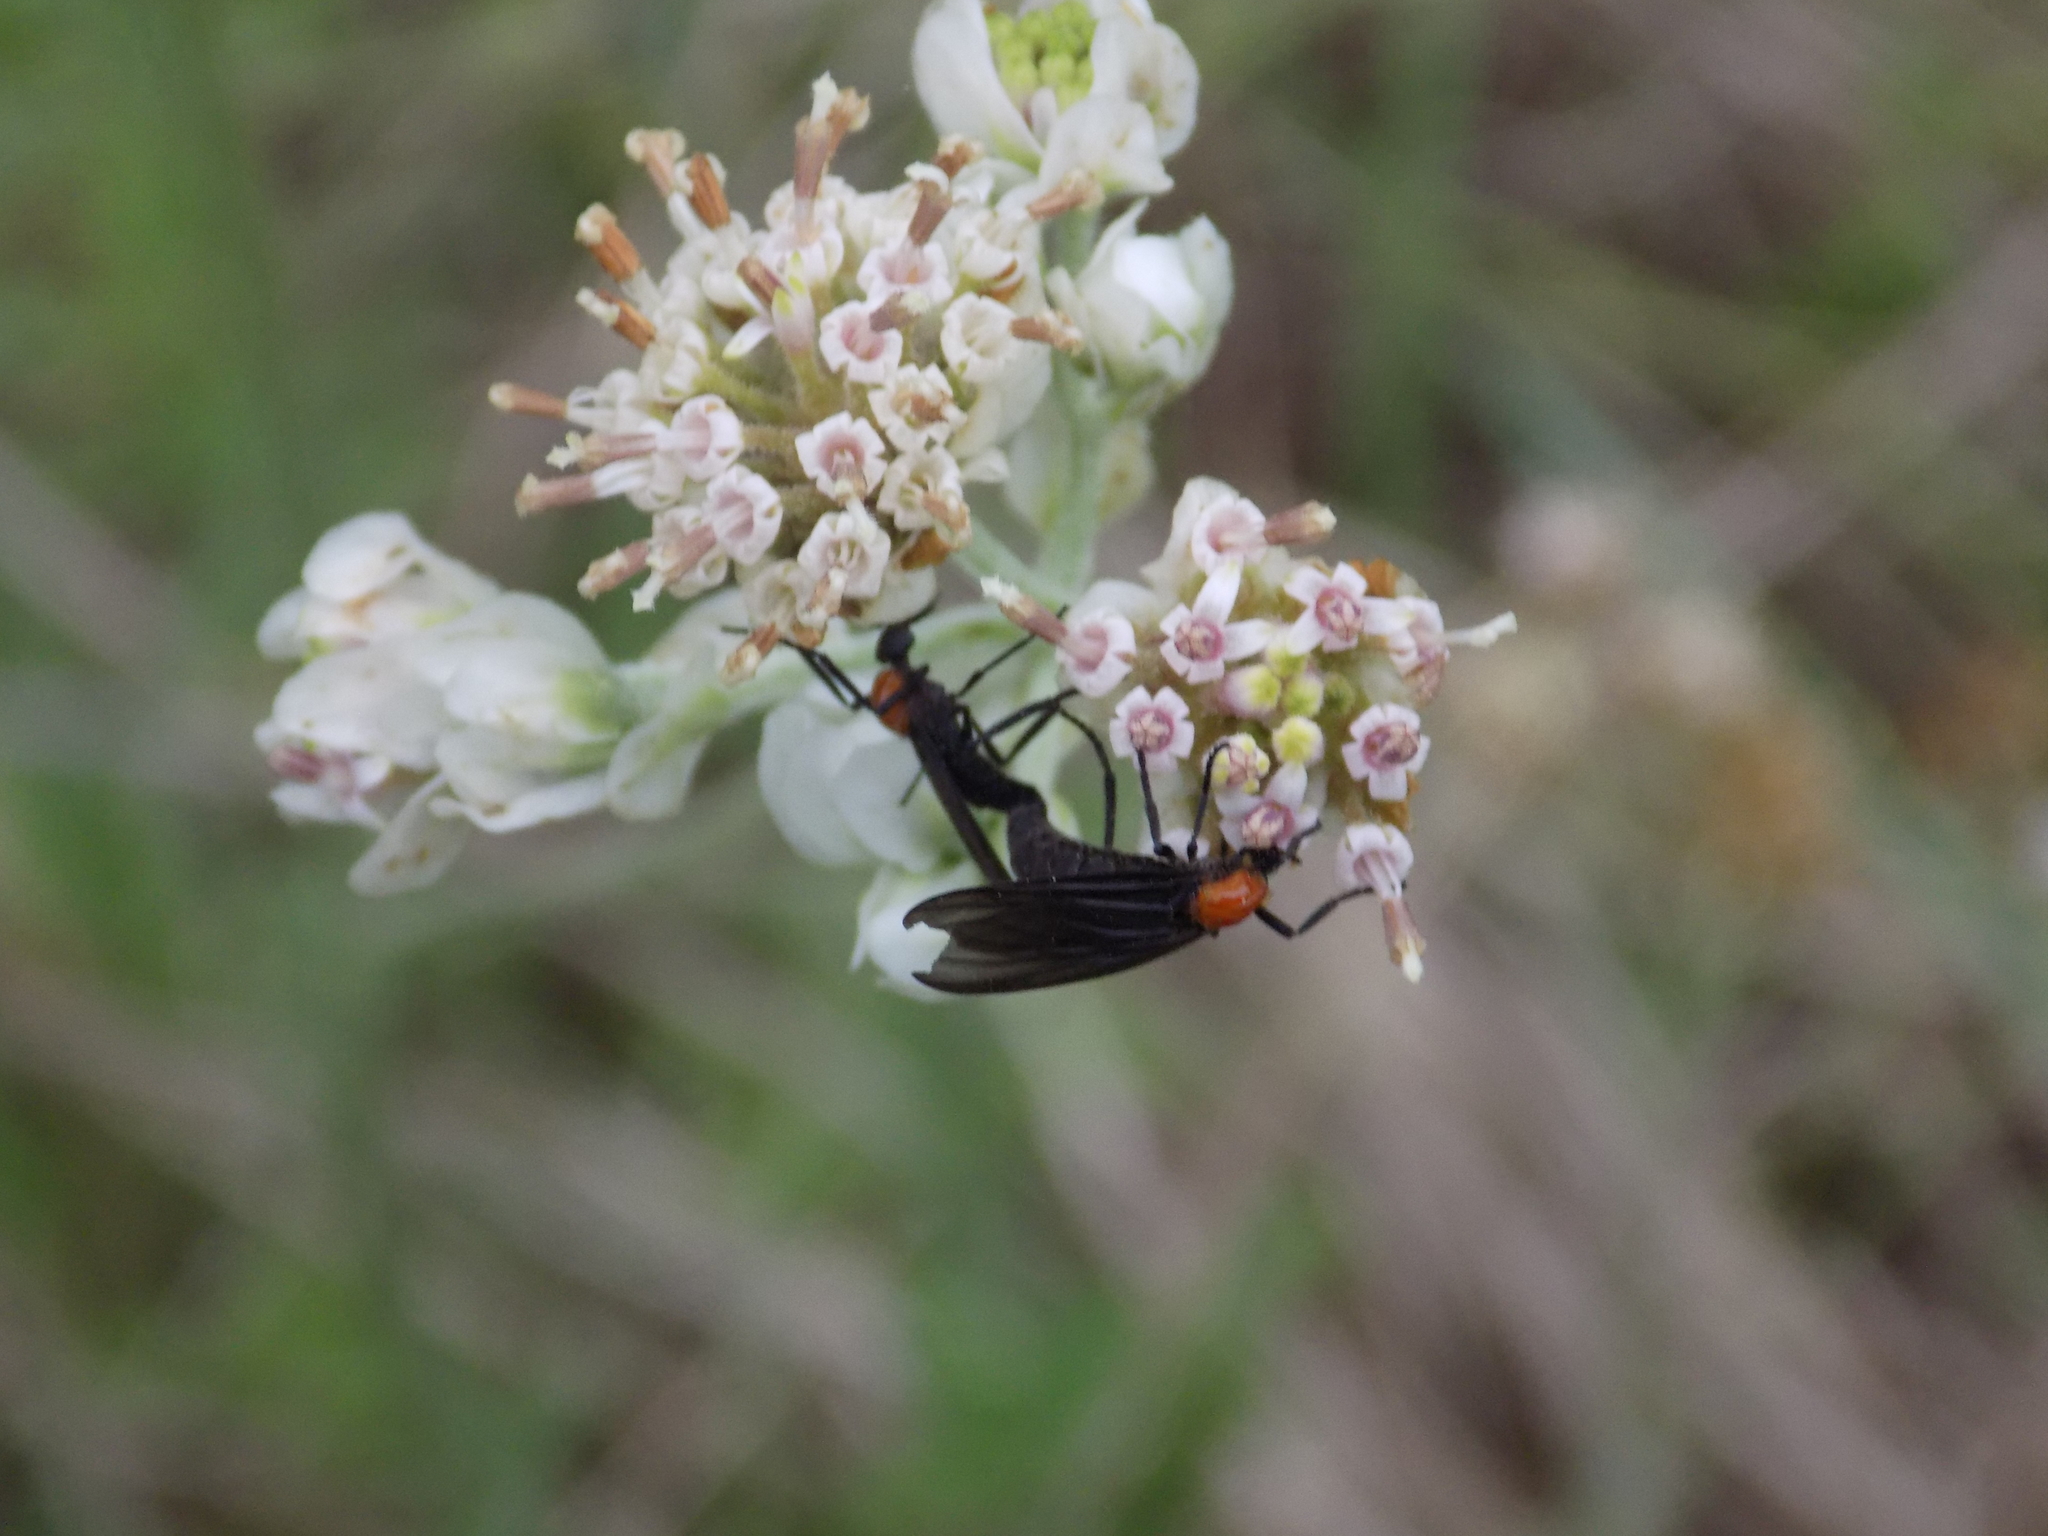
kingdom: Animalia
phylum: Arthropoda
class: Insecta
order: Diptera
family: Bibionidae
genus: Plecia
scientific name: Plecia nearctica
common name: March fly
